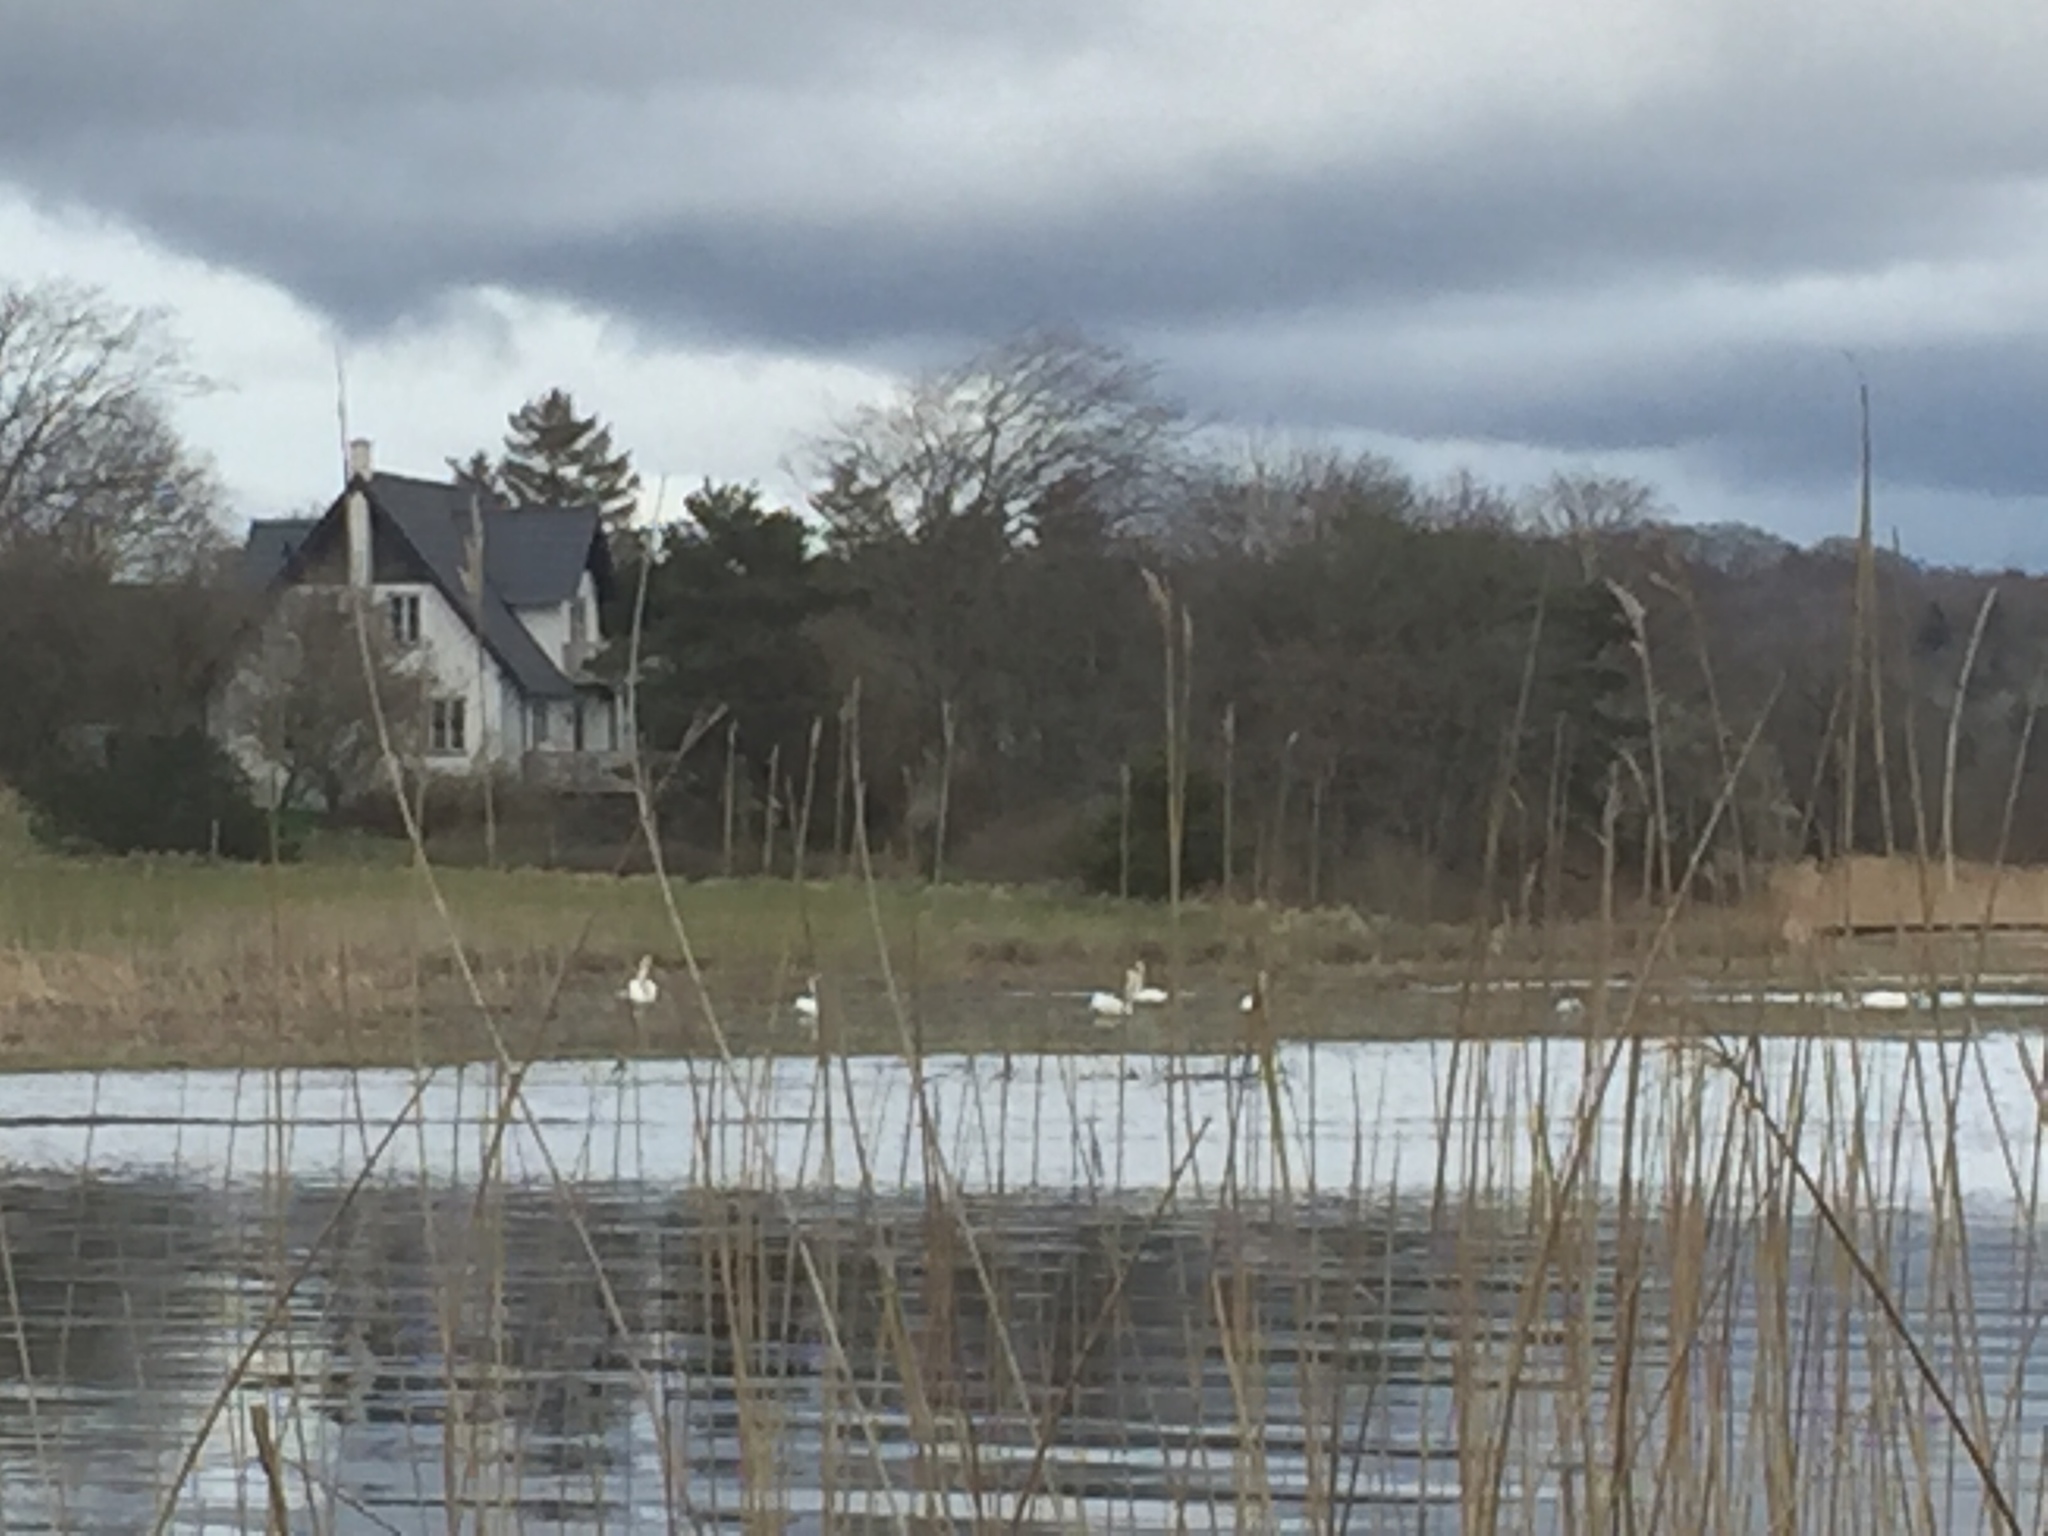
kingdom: Animalia
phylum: Chordata
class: Aves
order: Anseriformes
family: Anatidae
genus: Cygnus
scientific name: Cygnus olor
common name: Mute swan
